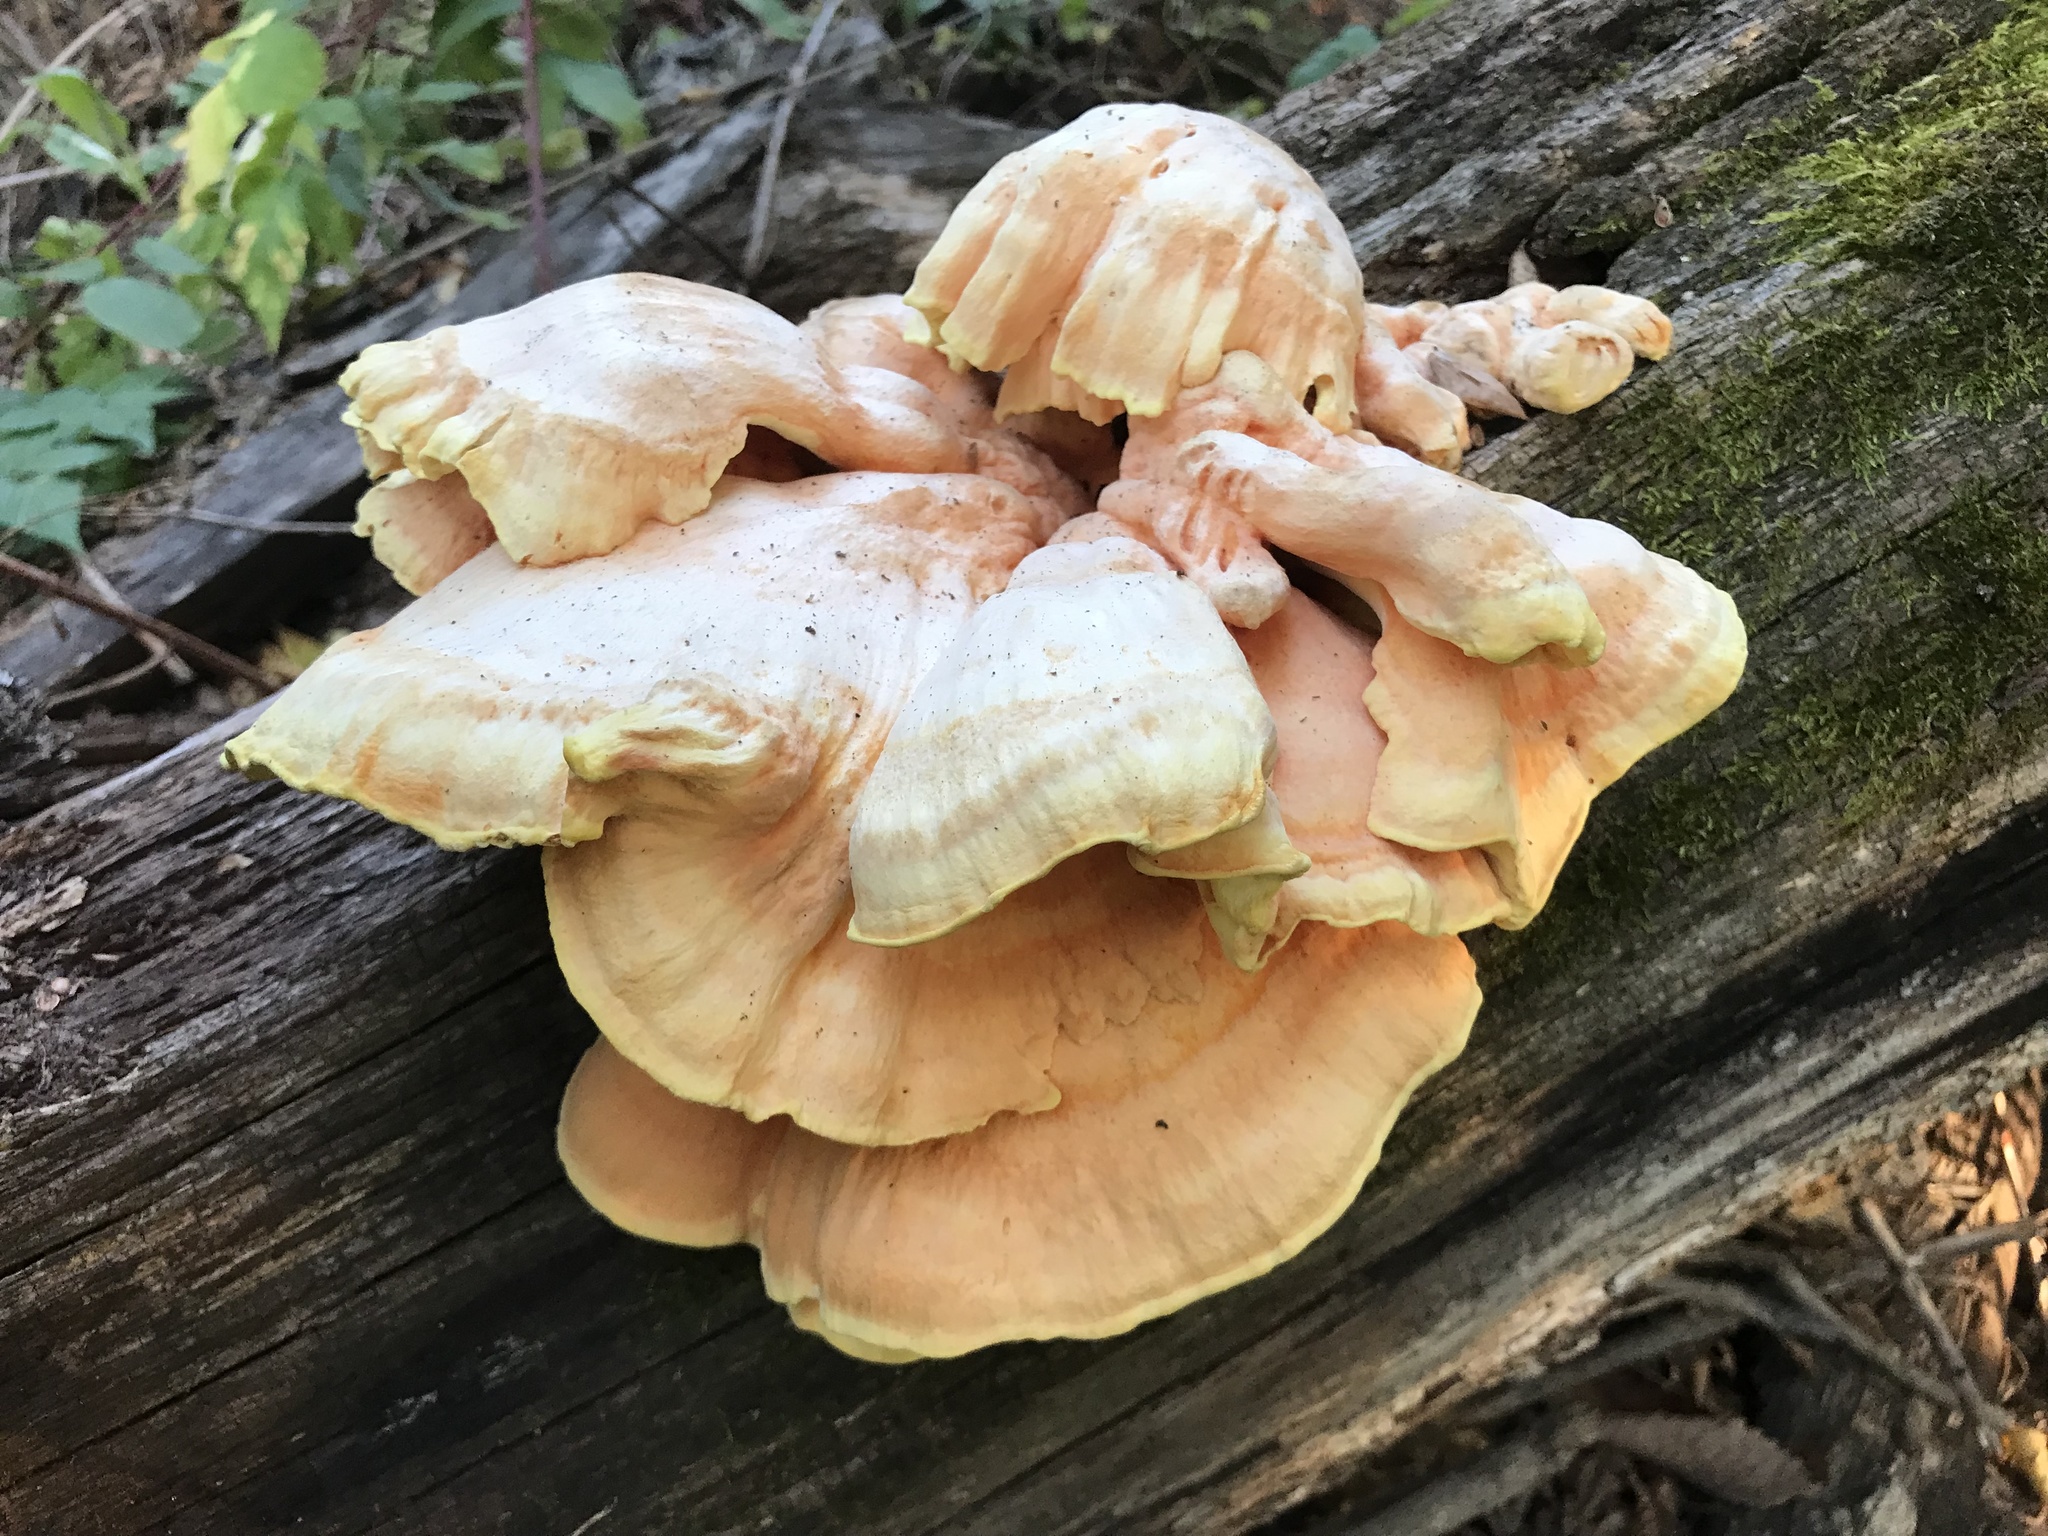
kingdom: Fungi
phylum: Basidiomycota
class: Agaricomycetes
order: Polyporales
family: Laetiporaceae
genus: Laetiporus
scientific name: Laetiporus sulphureus
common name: Chicken of the woods
